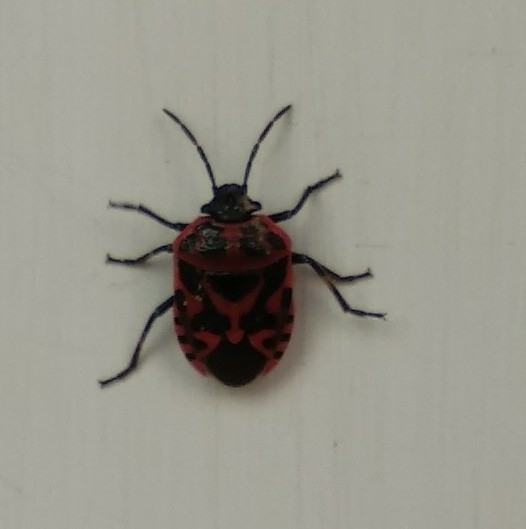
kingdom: Animalia
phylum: Arthropoda
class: Insecta
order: Hemiptera
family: Pentatomidae
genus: Eurydema
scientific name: Eurydema ornata
